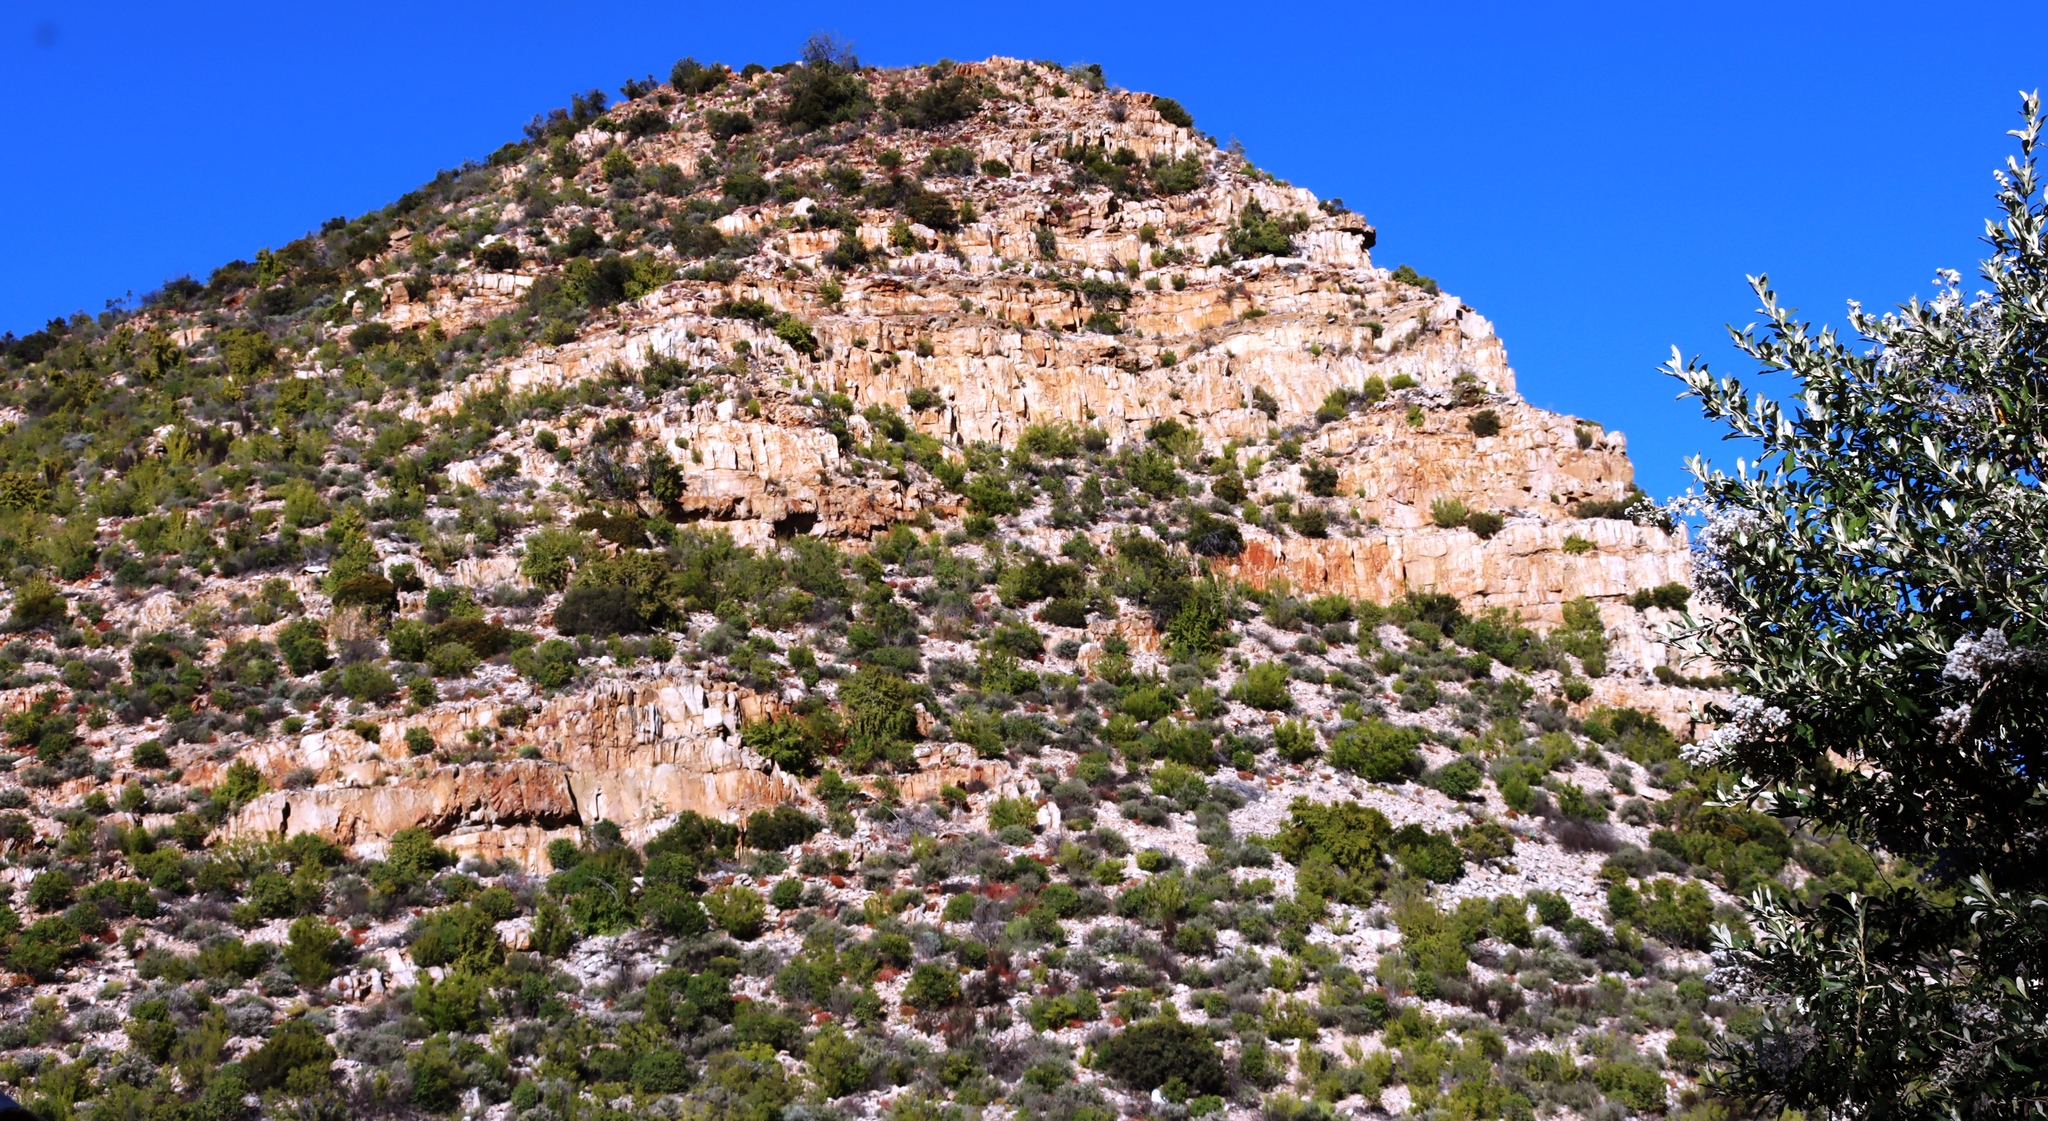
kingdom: Plantae
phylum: Tracheophyta
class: Magnoliopsida
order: Caryophyllales
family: Didiereaceae
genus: Portulacaria
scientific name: Portulacaria afra
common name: Elephant-bush
